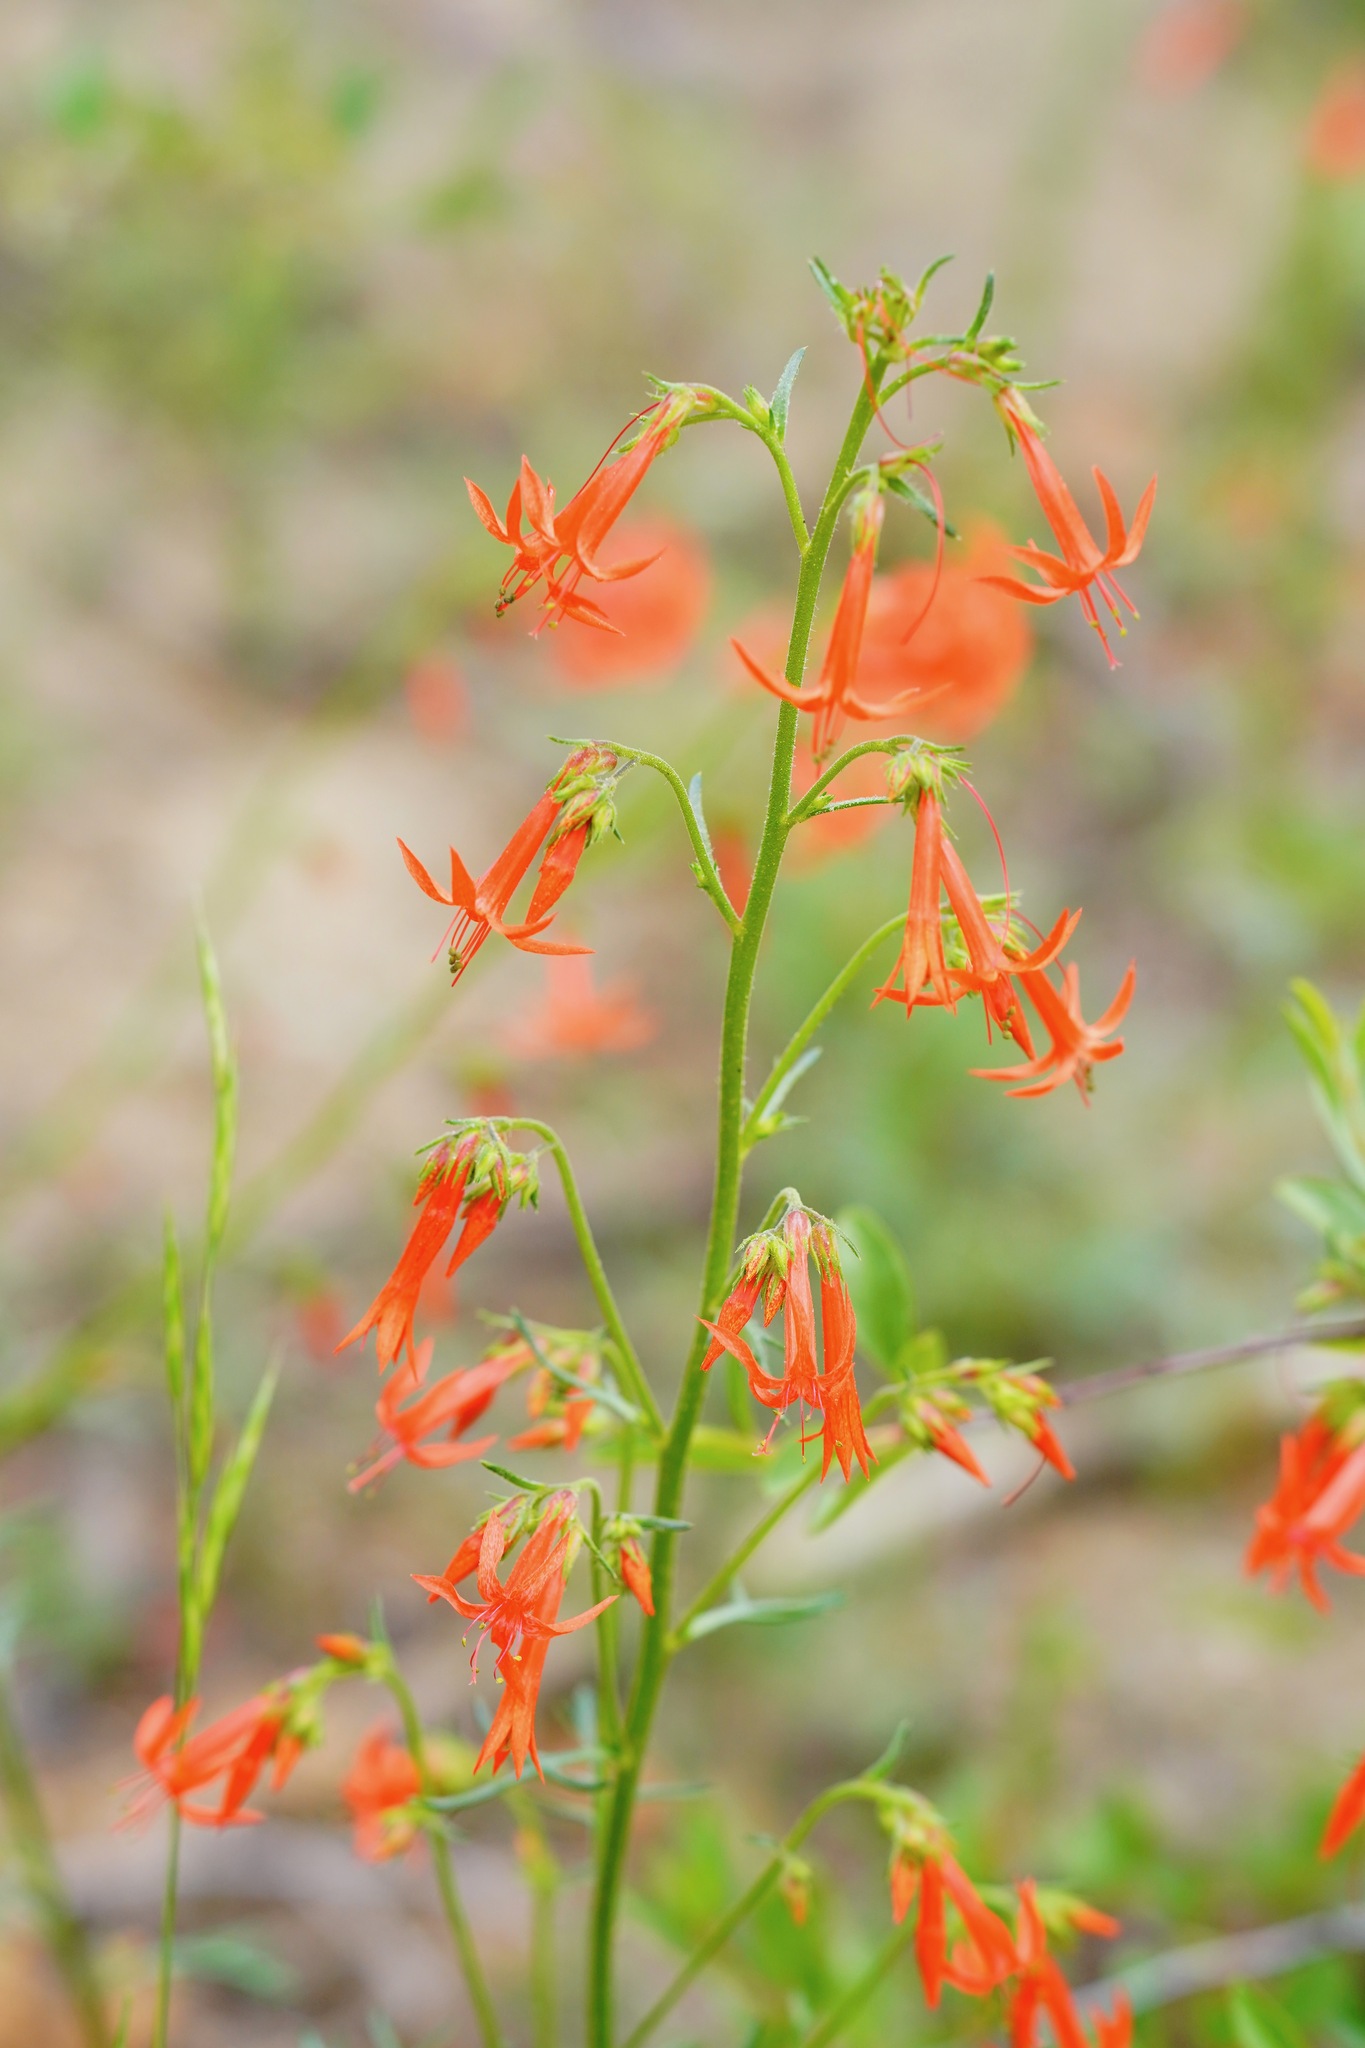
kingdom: Plantae
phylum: Tracheophyta
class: Magnoliopsida
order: Ericales
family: Polemoniaceae
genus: Ipomopsis
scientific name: Ipomopsis aggregata
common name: Scarlet gilia
